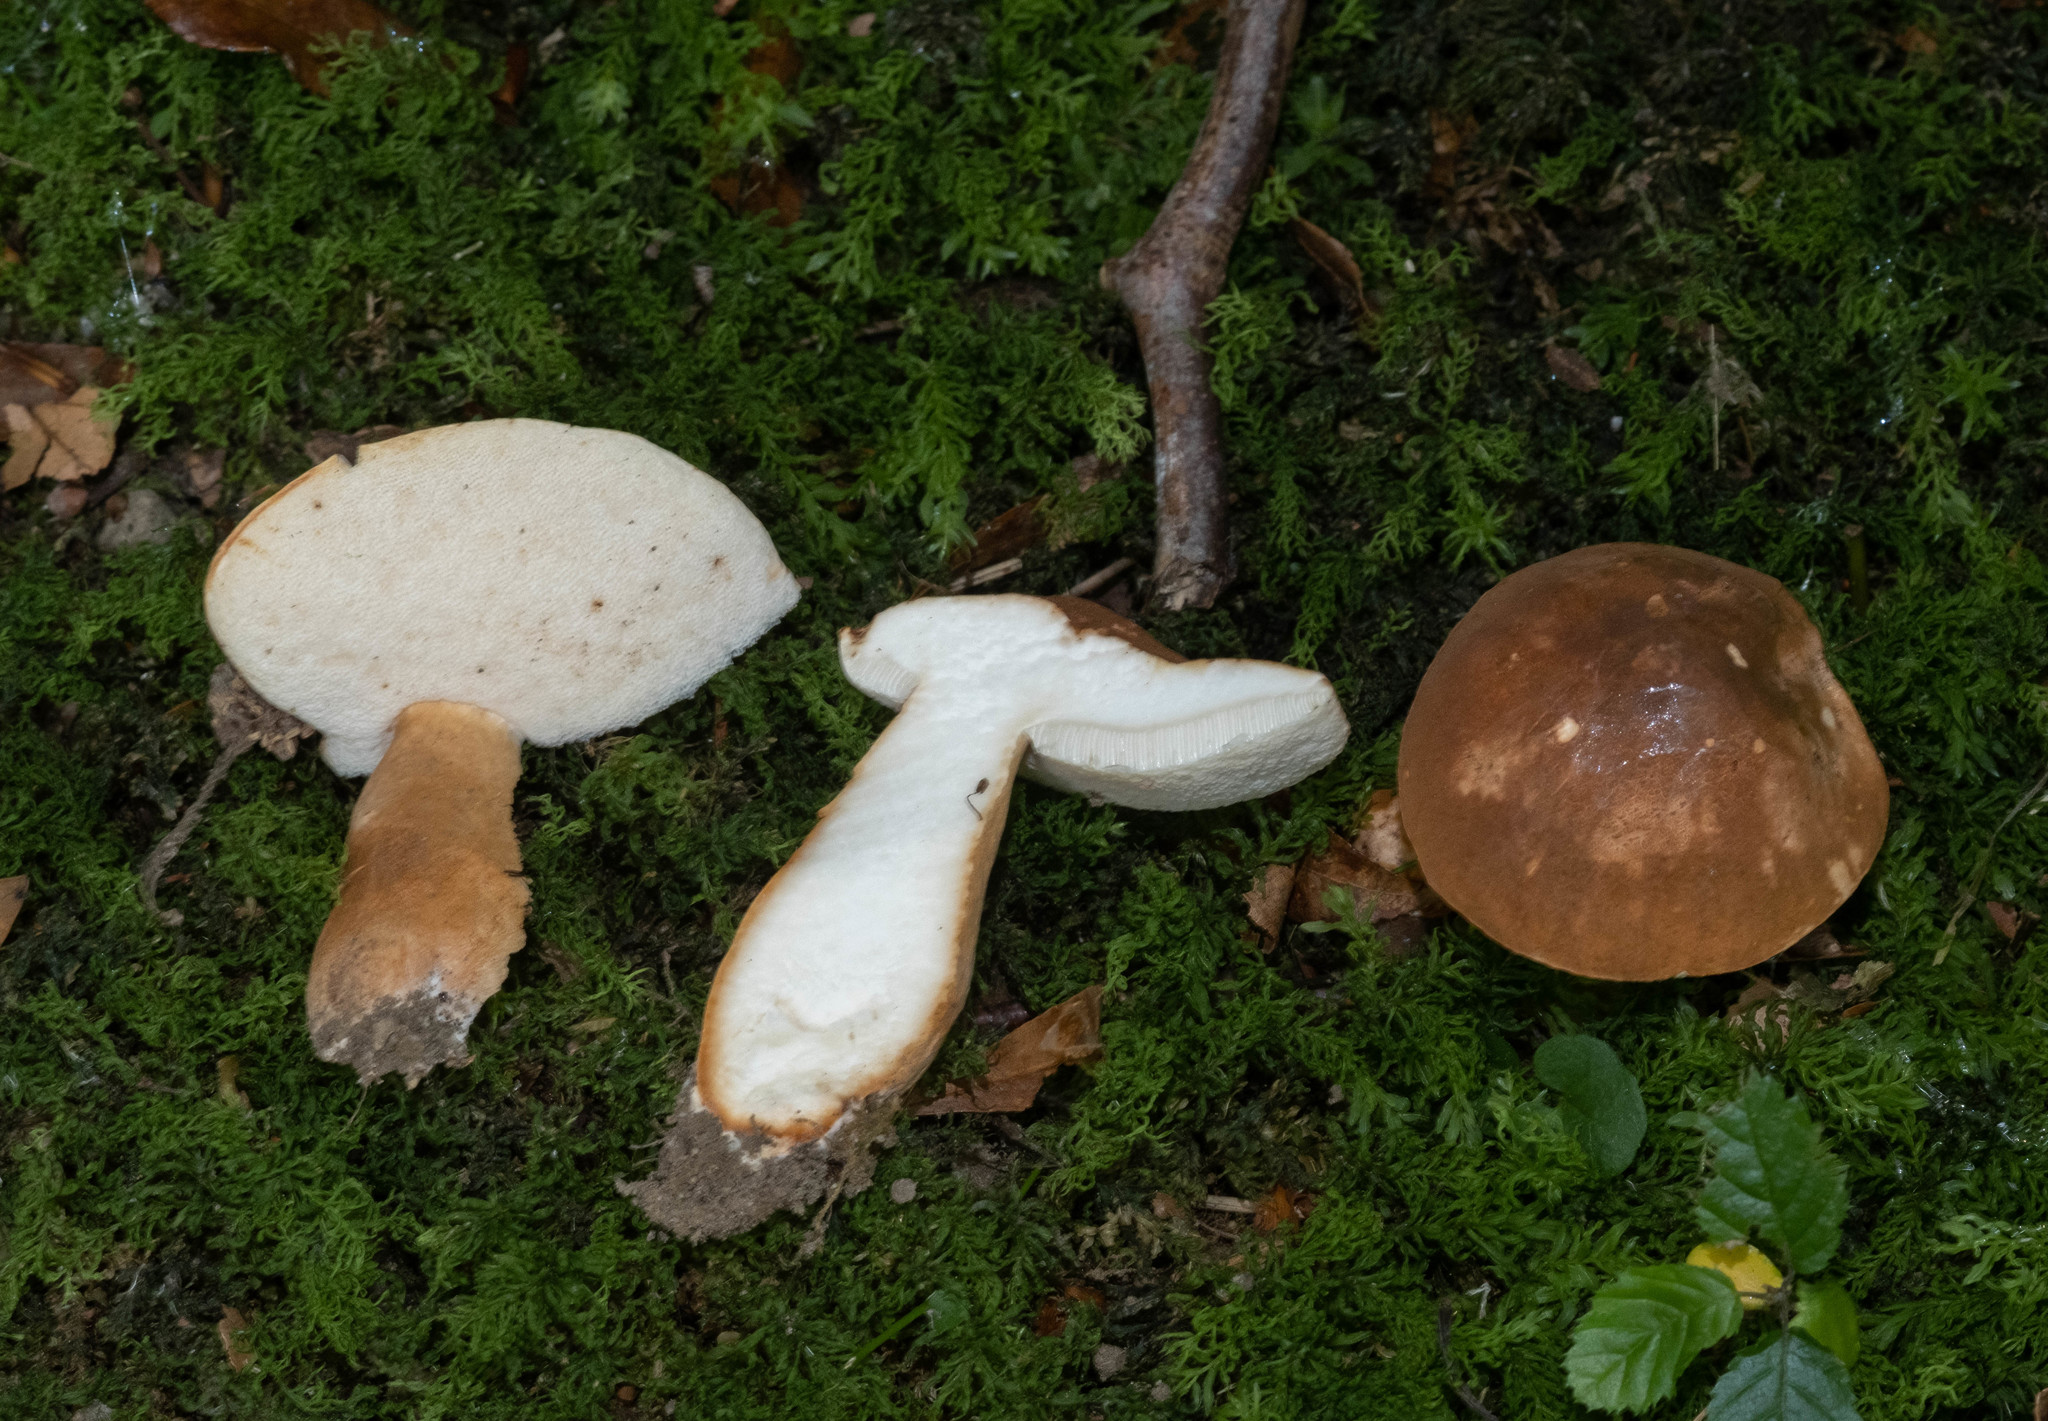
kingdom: Fungi
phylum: Basidiomycota
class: Agaricomycetes
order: Boletales
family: Gyroporaceae
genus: Gyroporus
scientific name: Gyroporus castaneus
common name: Chestnut bolete
